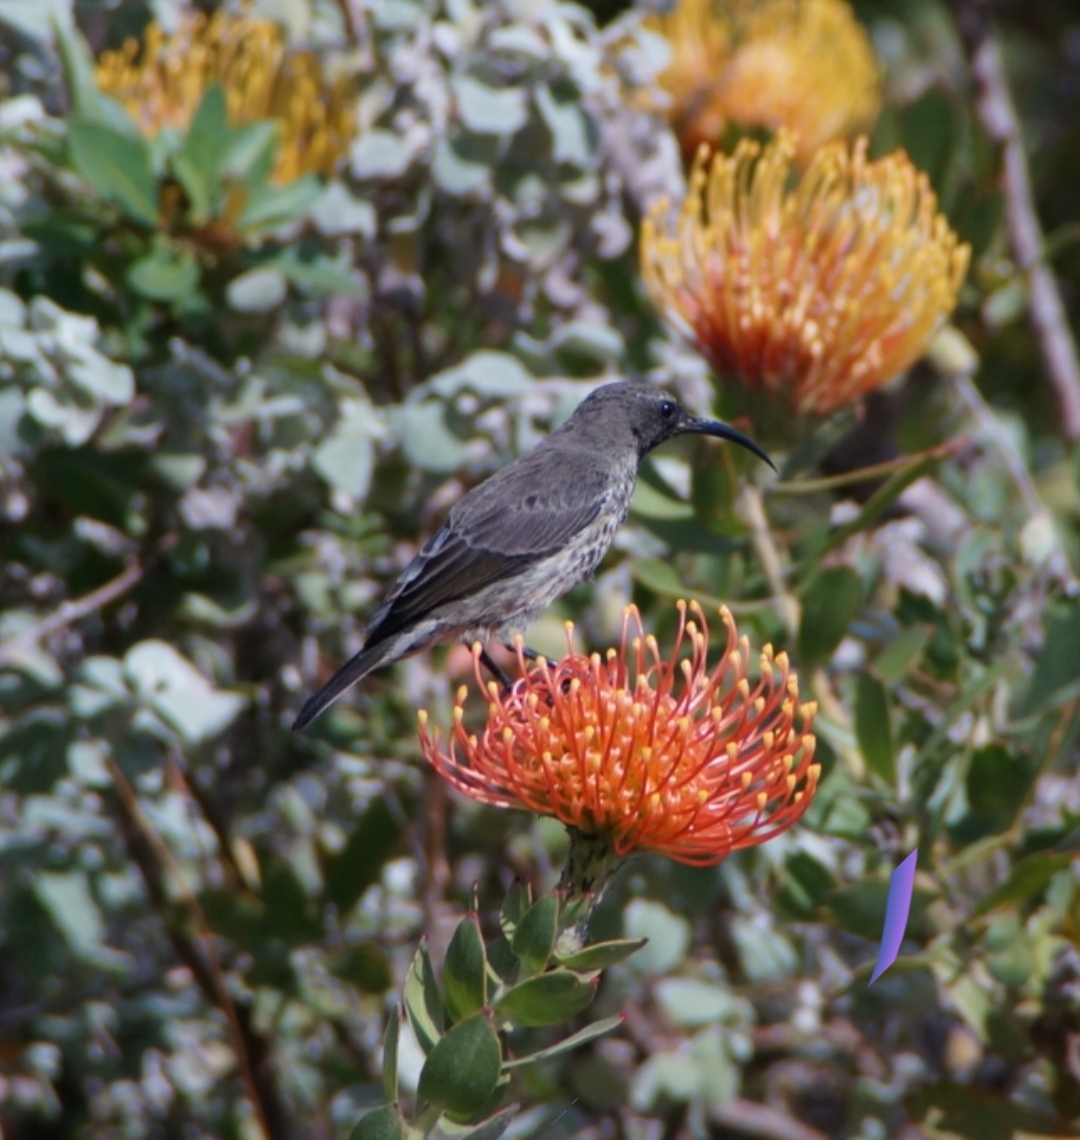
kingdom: Animalia
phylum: Chordata
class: Aves
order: Passeriformes
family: Nectariniidae
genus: Chalcomitra
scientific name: Chalcomitra amethystina
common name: Amethyst sunbird
